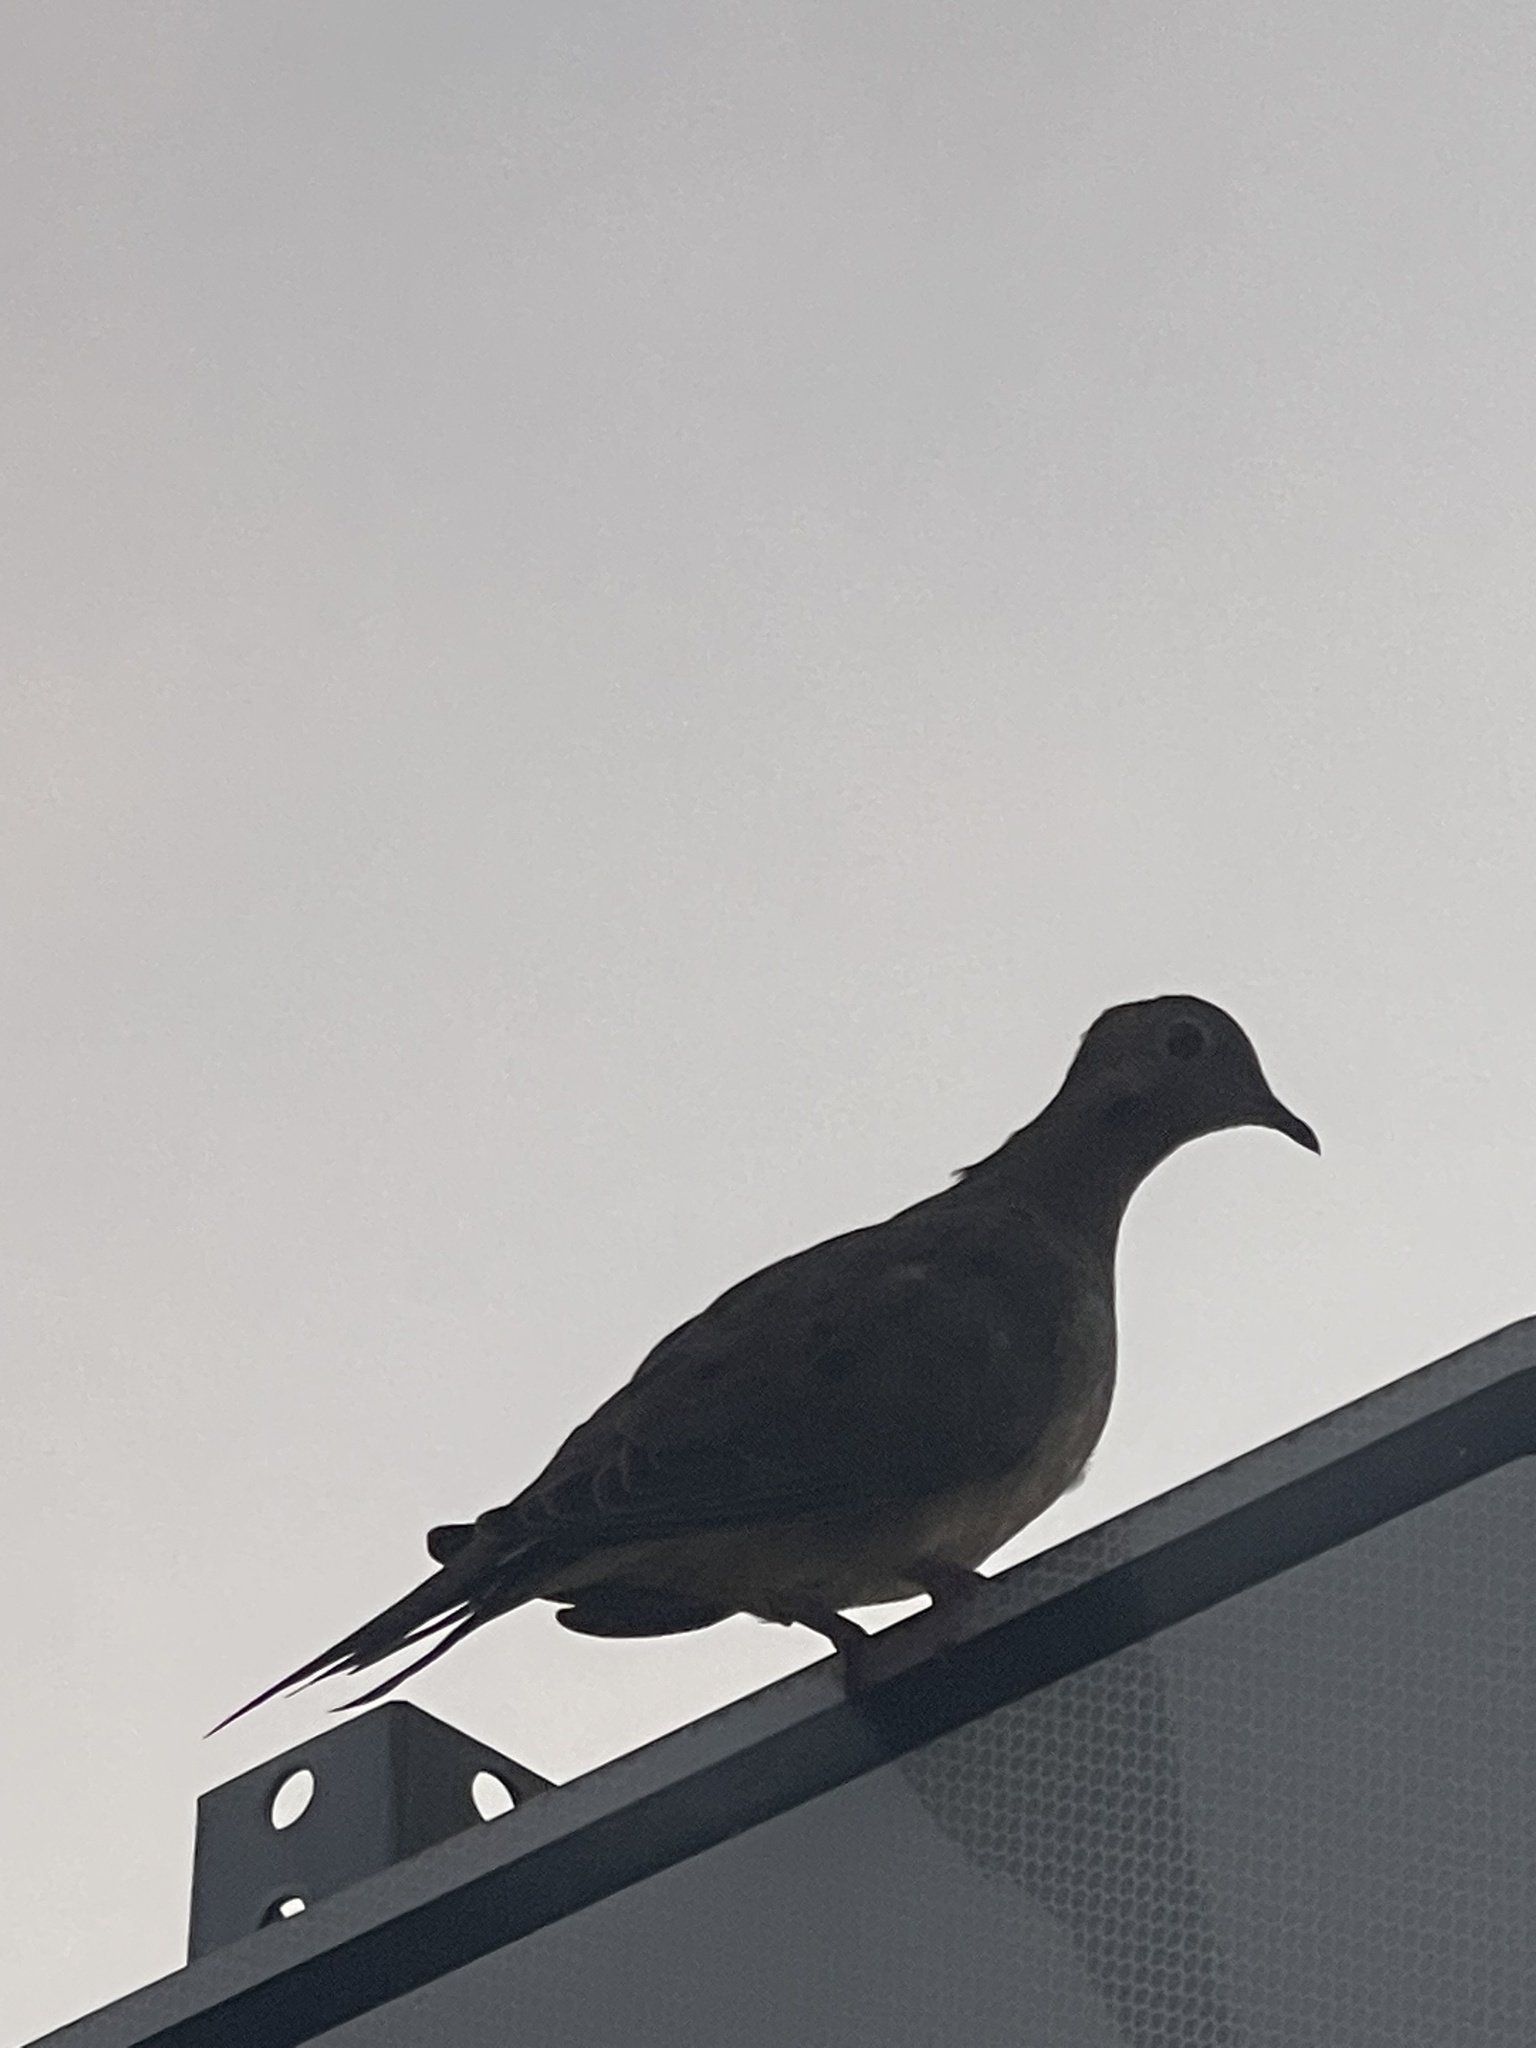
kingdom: Animalia
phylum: Chordata
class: Aves
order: Columbiformes
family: Columbidae
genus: Zenaida
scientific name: Zenaida macroura
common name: Mourning dove
